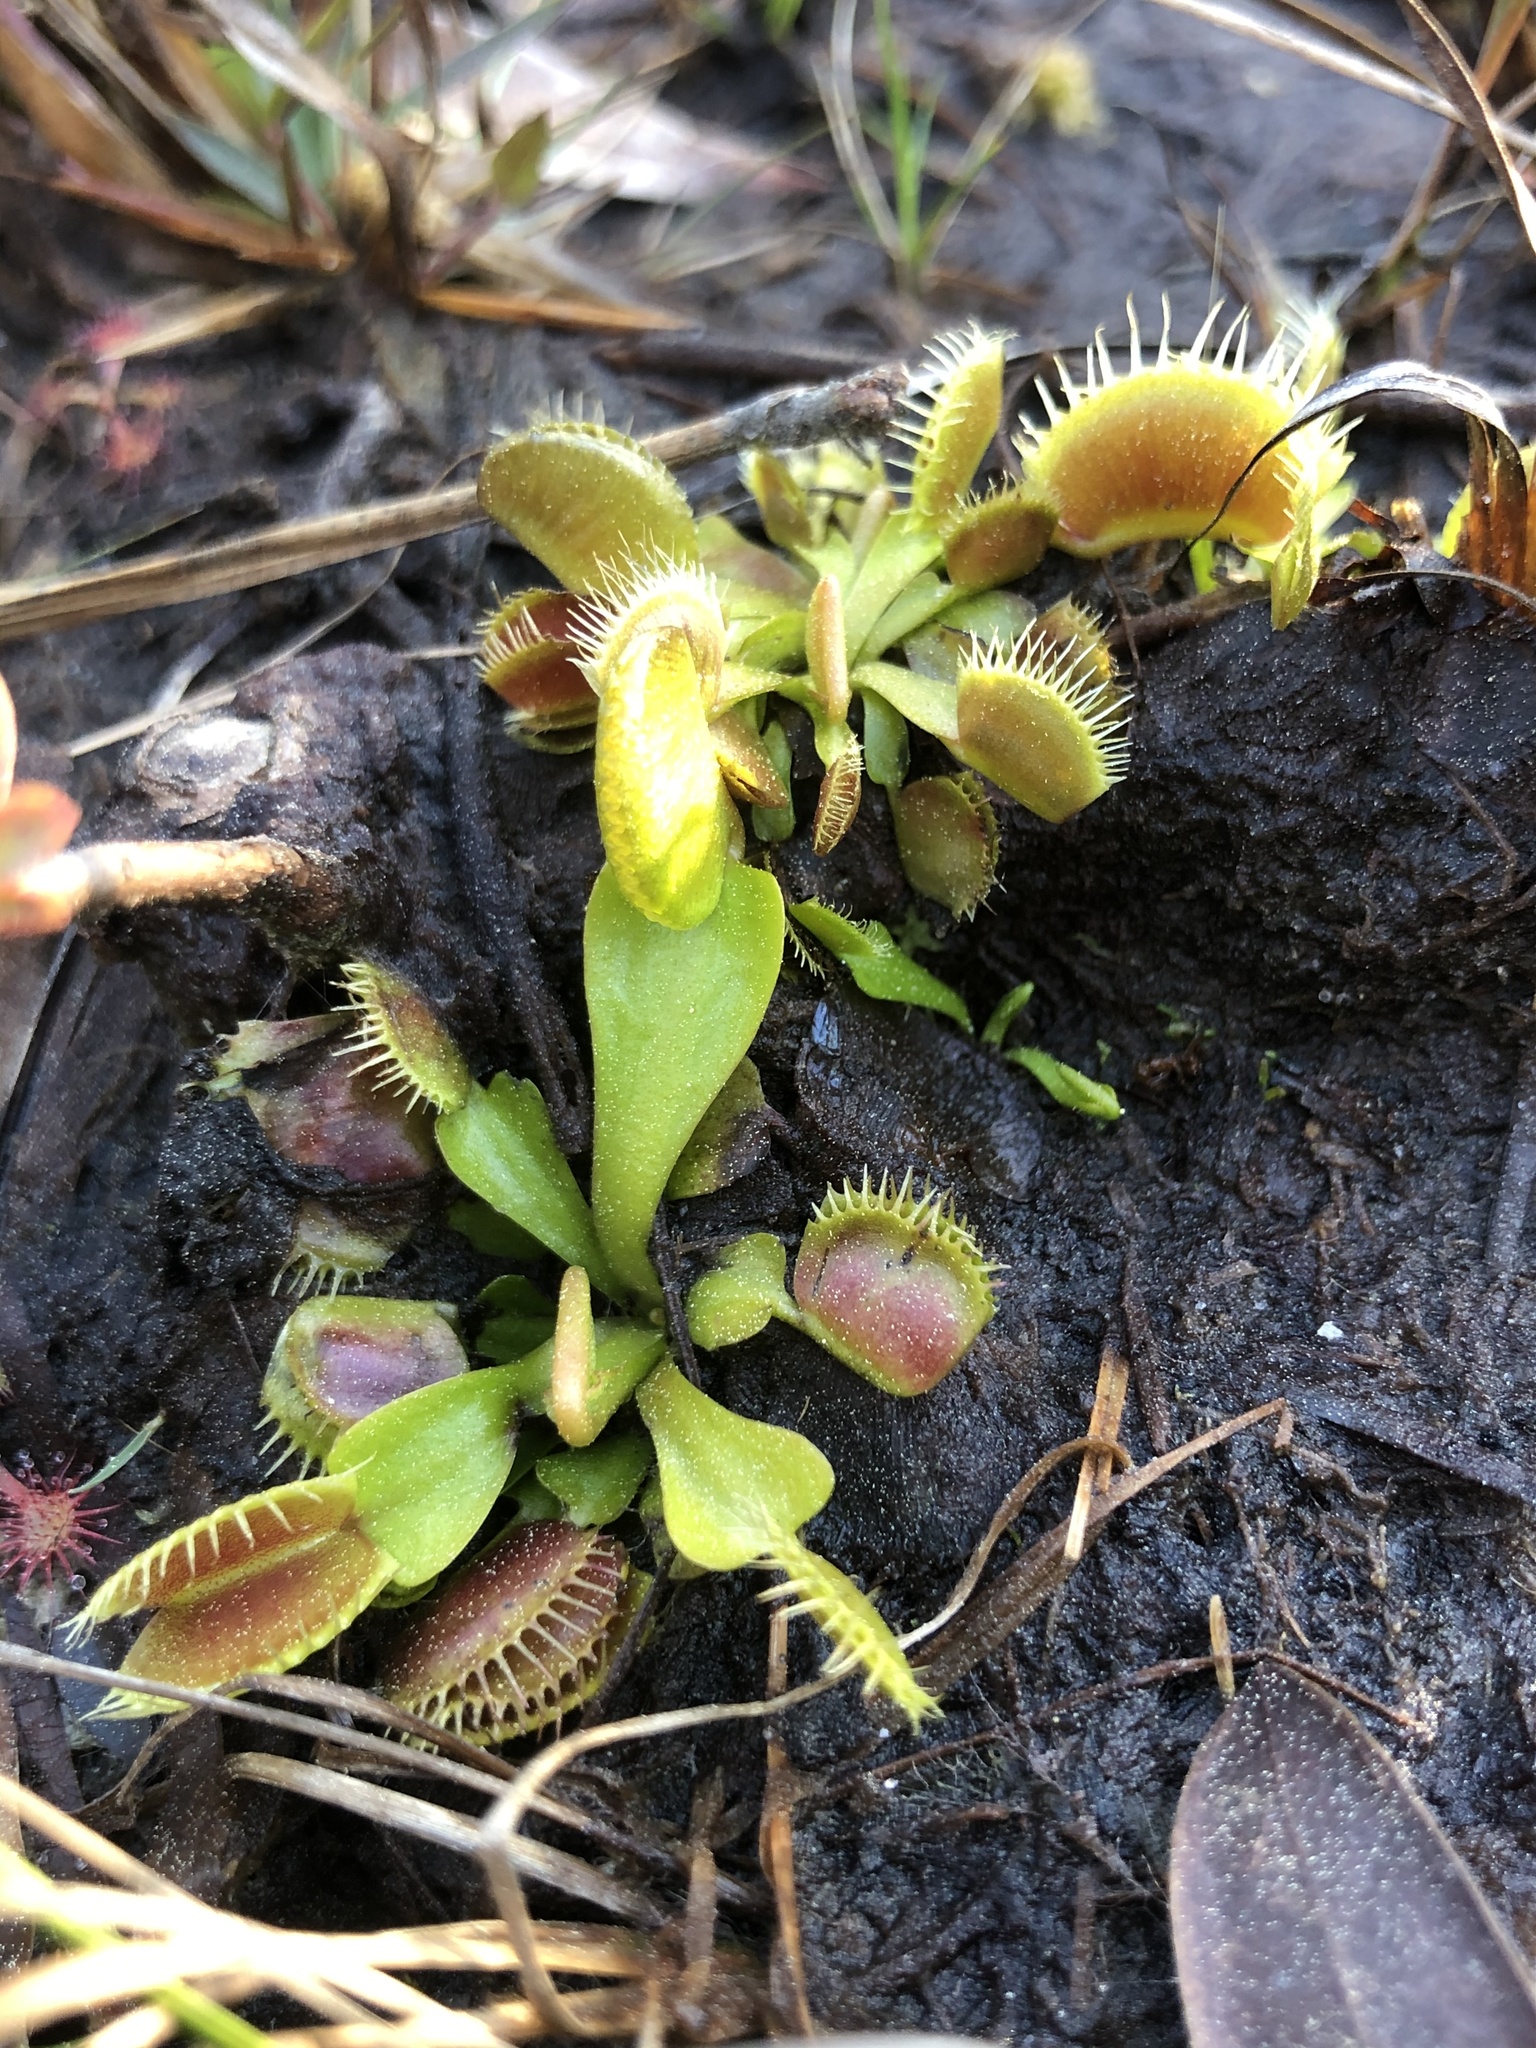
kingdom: Plantae
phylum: Tracheophyta
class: Magnoliopsida
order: Caryophyllales
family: Droseraceae
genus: Dionaea
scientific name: Dionaea muscipula
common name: Venus flytrap
